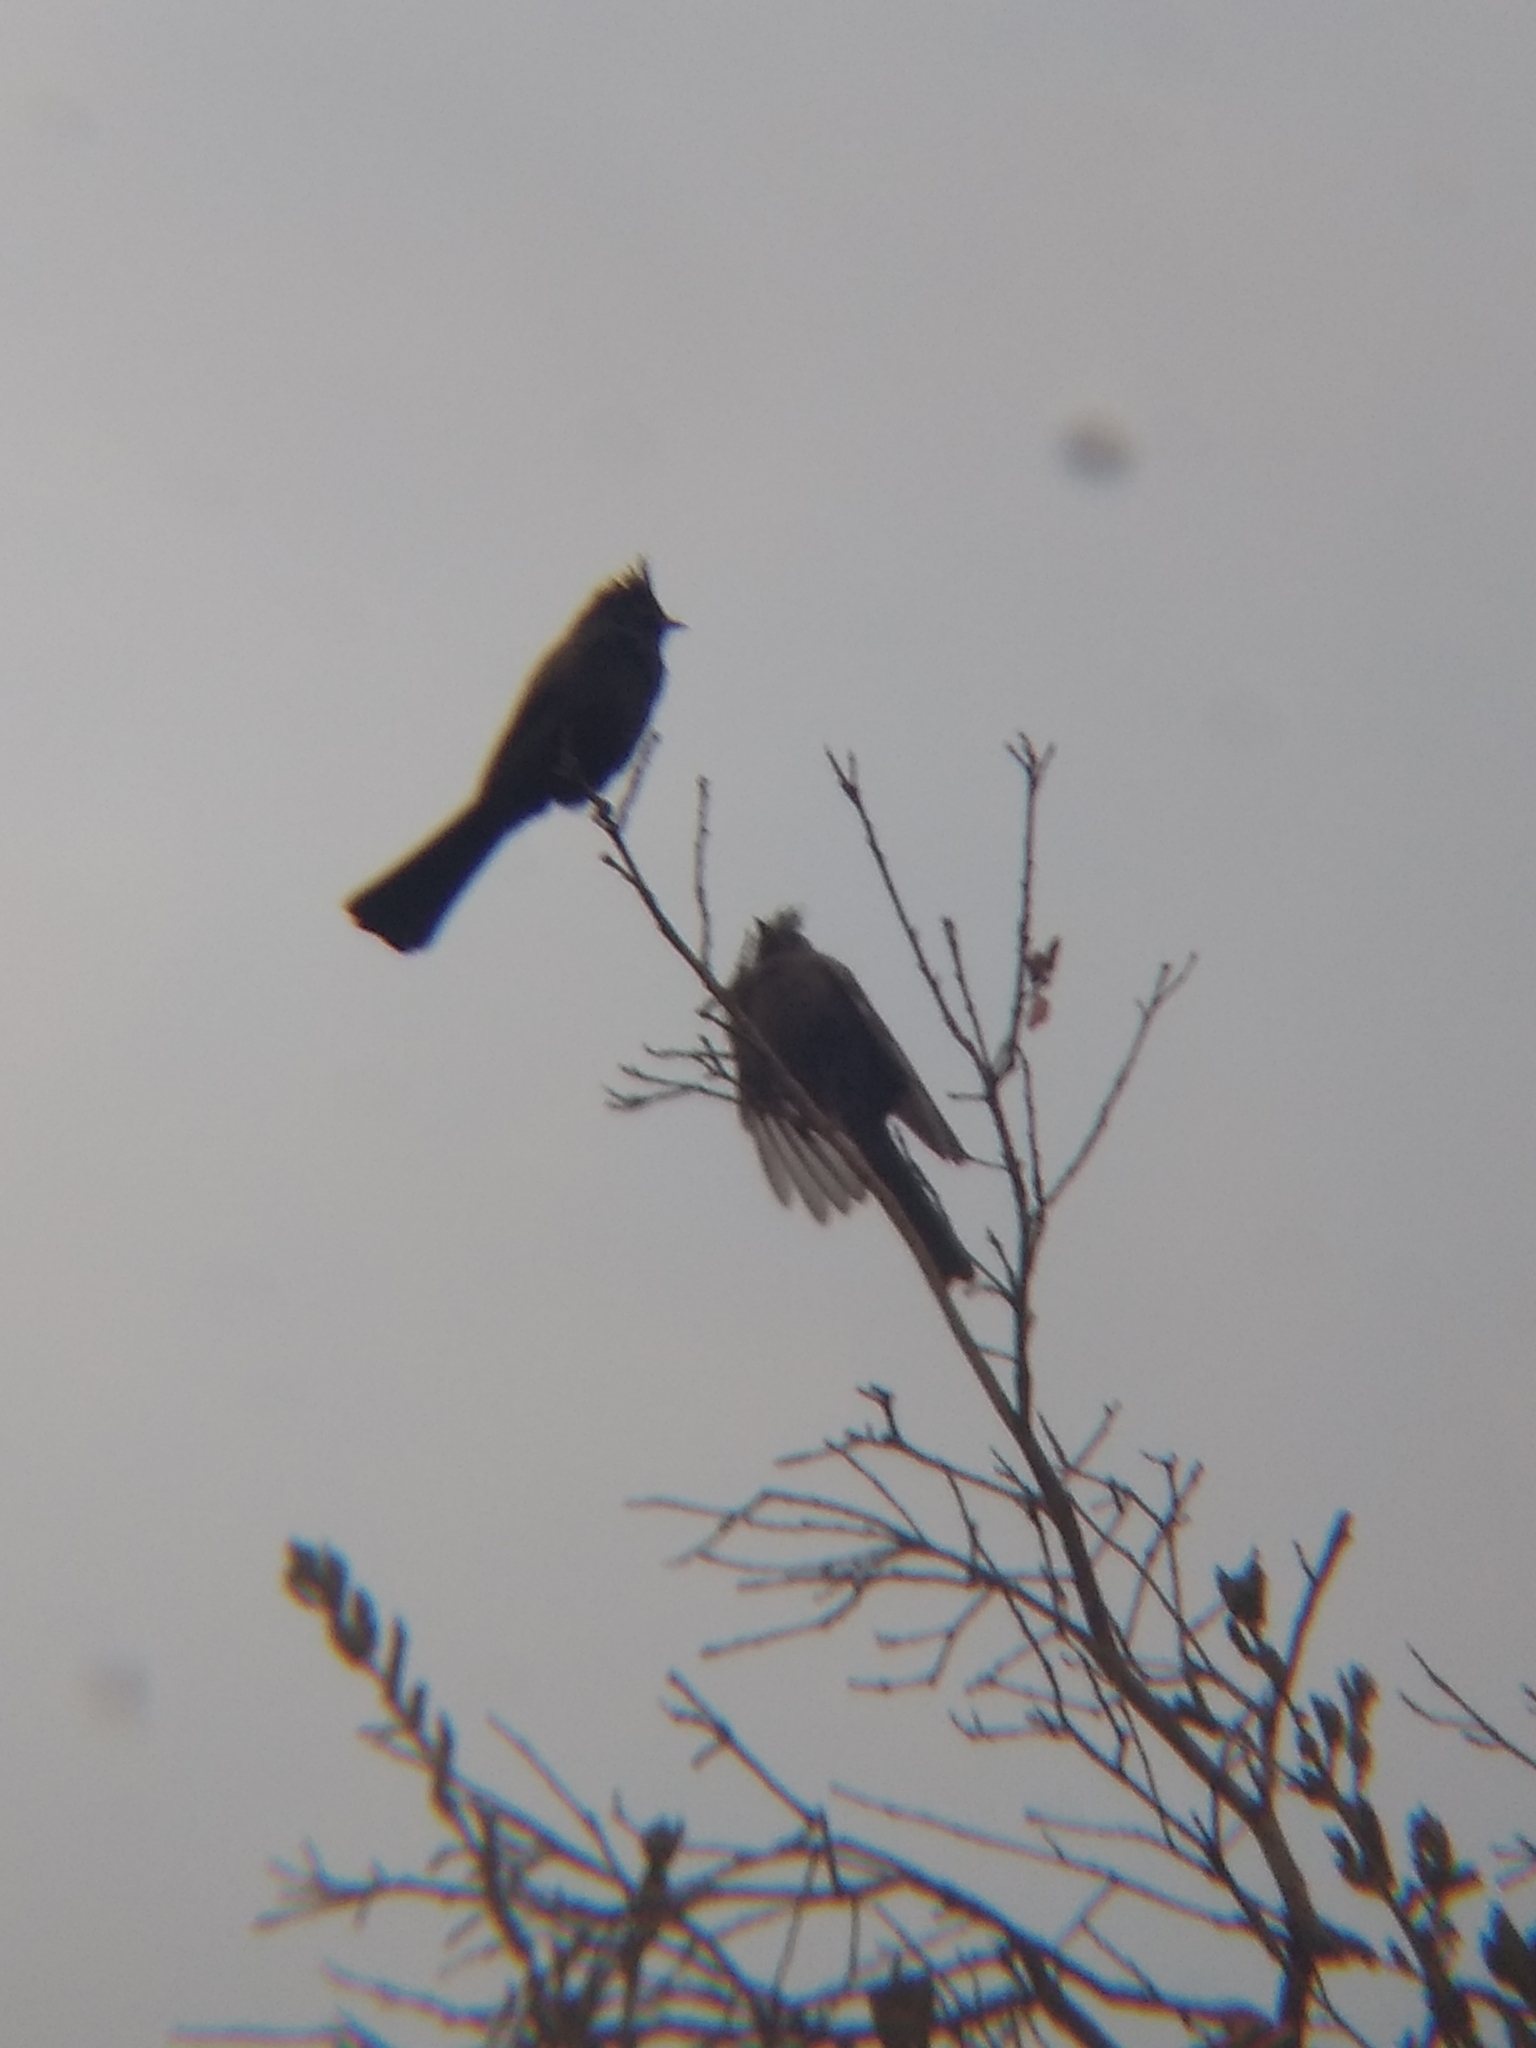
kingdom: Animalia
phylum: Chordata
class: Aves
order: Passeriformes
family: Ptilogonatidae
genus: Phainopepla
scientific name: Phainopepla nitens
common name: Phainopepla
